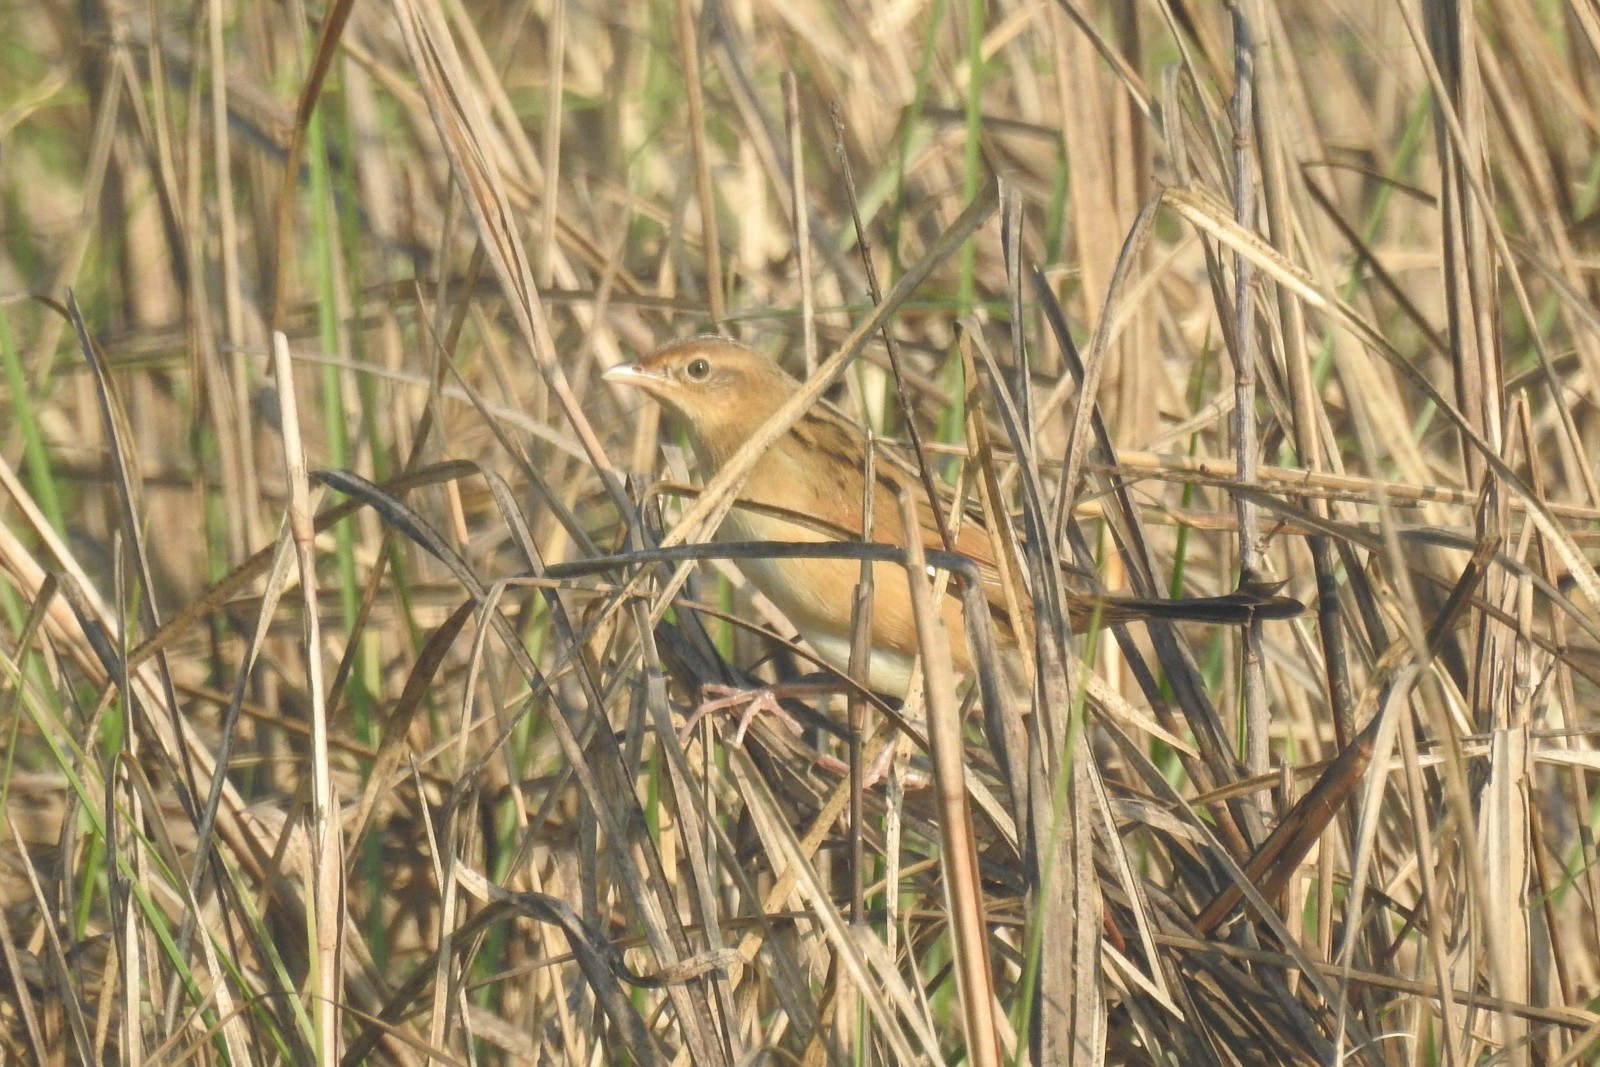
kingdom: Animalia
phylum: Chordata
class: Aves
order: Passeriformes
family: Locustellidae
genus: Chaetornis
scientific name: Chaetornis striata
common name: Bristled grassbird
